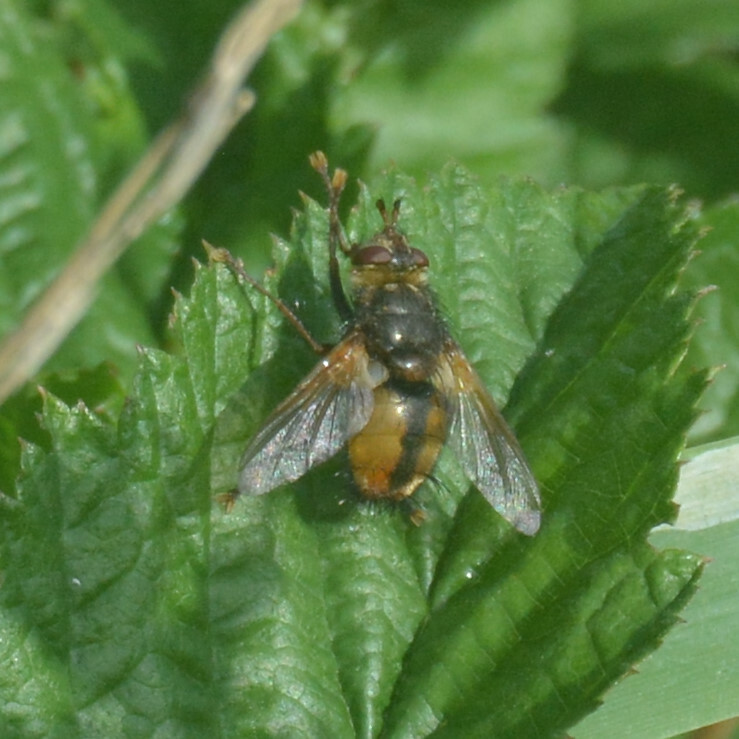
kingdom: Animalia
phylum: Arthropoda
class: Insecta
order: Diptera
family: Tachinidae
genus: Tachina
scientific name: Tachina fera
